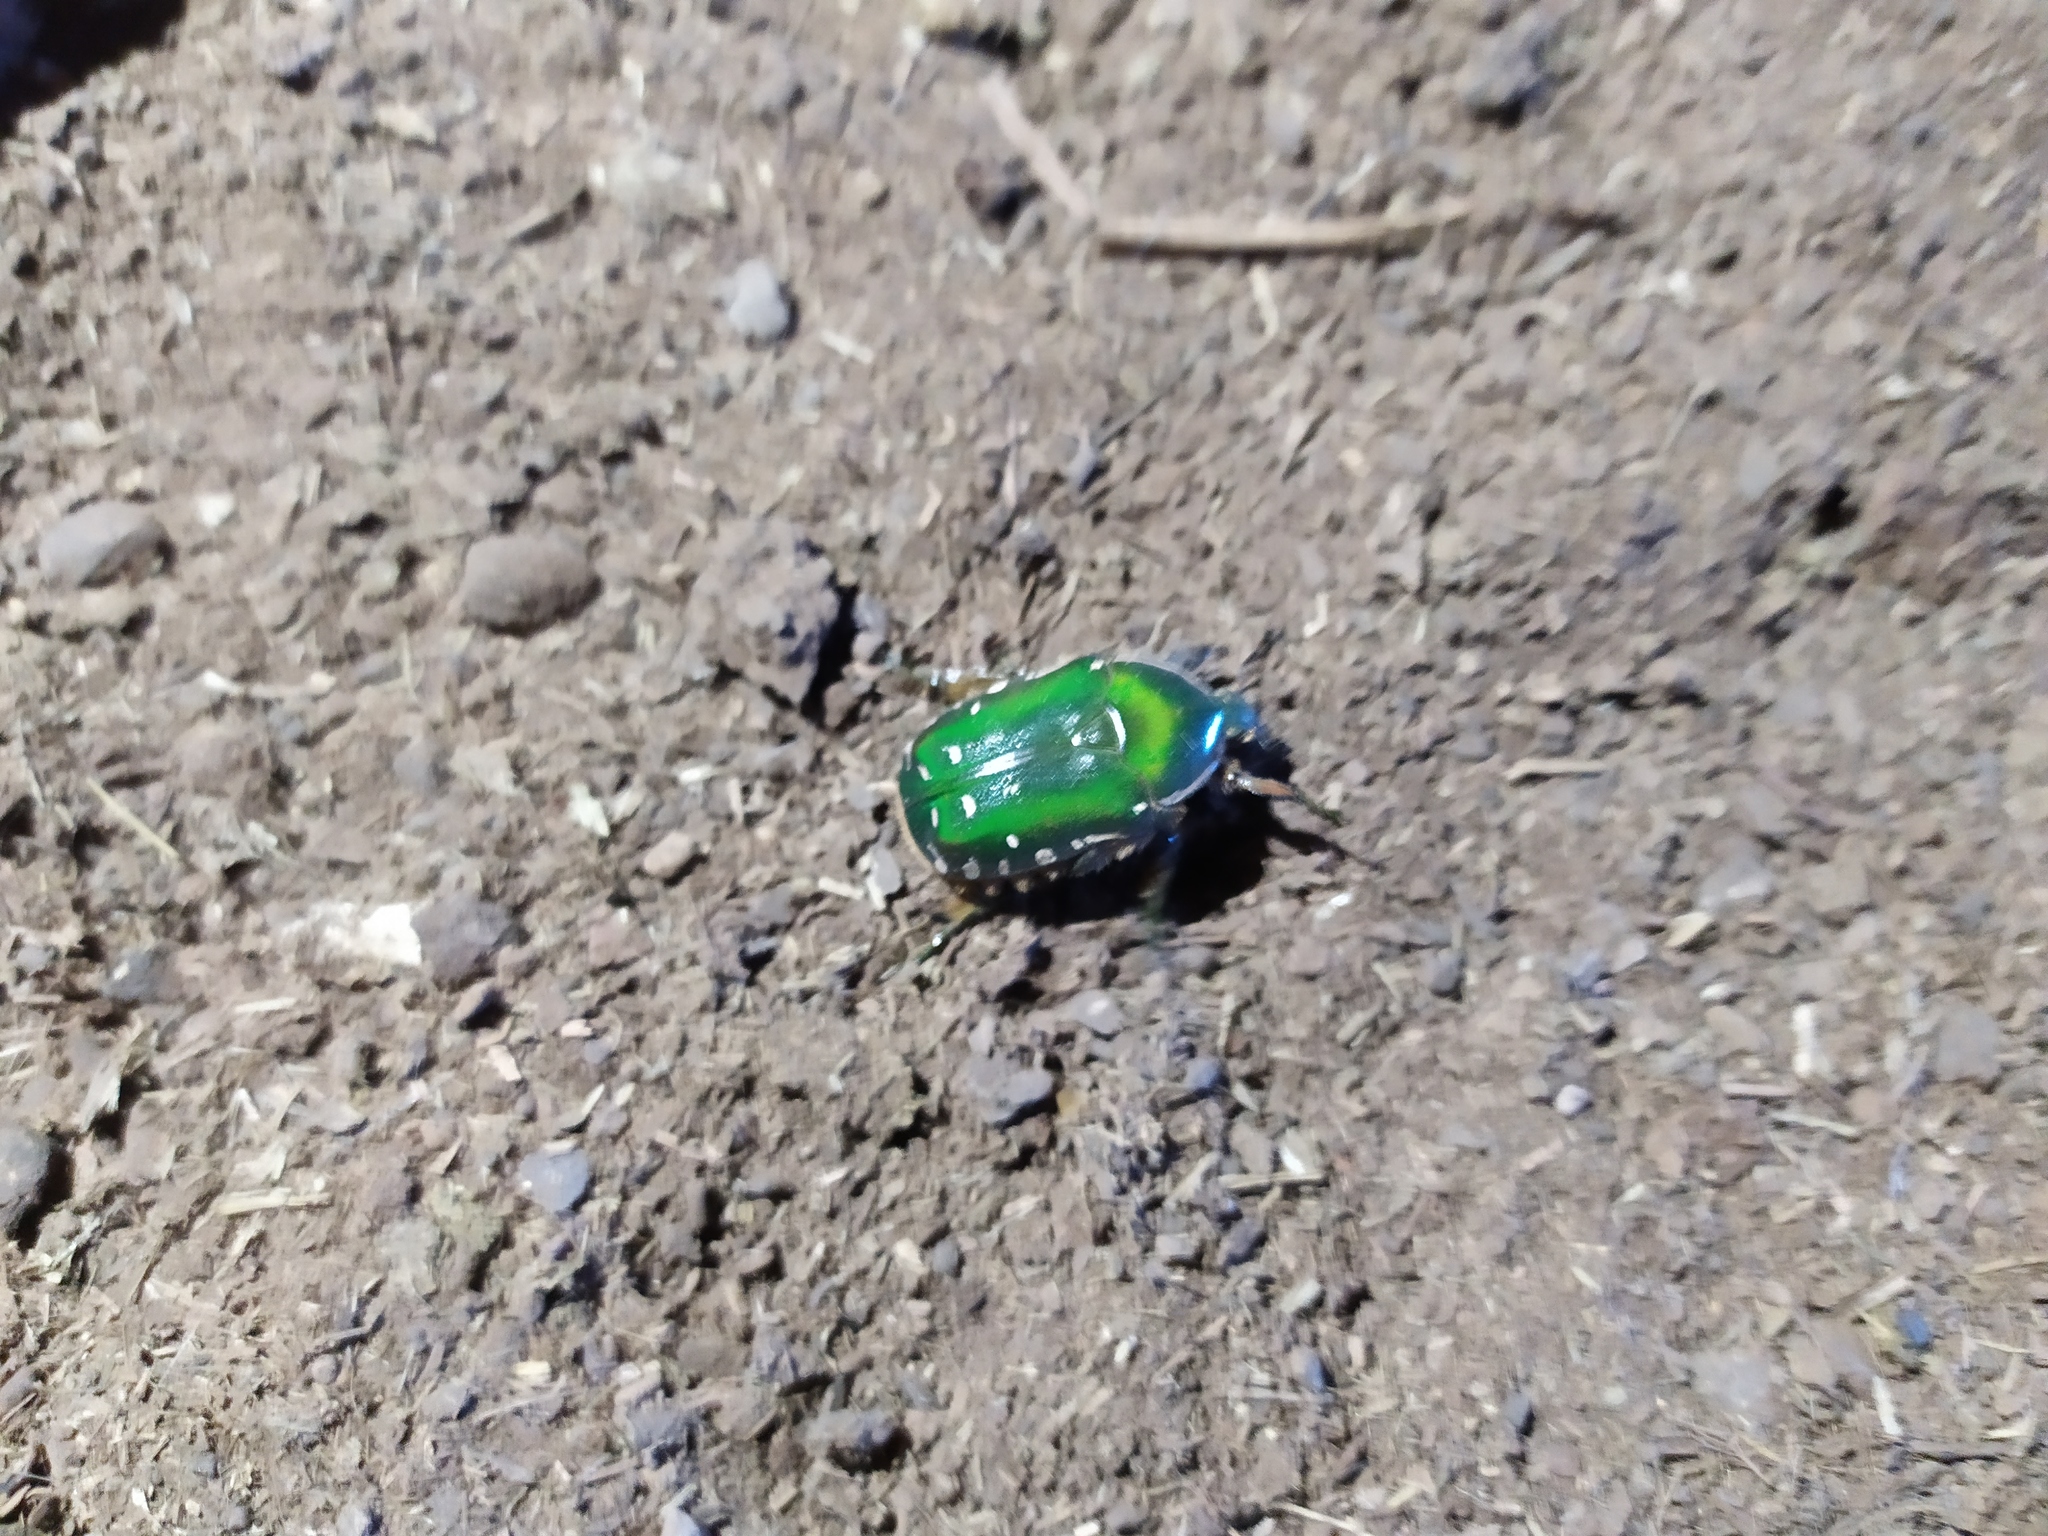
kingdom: Animalia
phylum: Arthropoda
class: Insecta
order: Coleoptera
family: Scarabaeidae
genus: Rhabdotis
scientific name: Rhabdotis aulica
